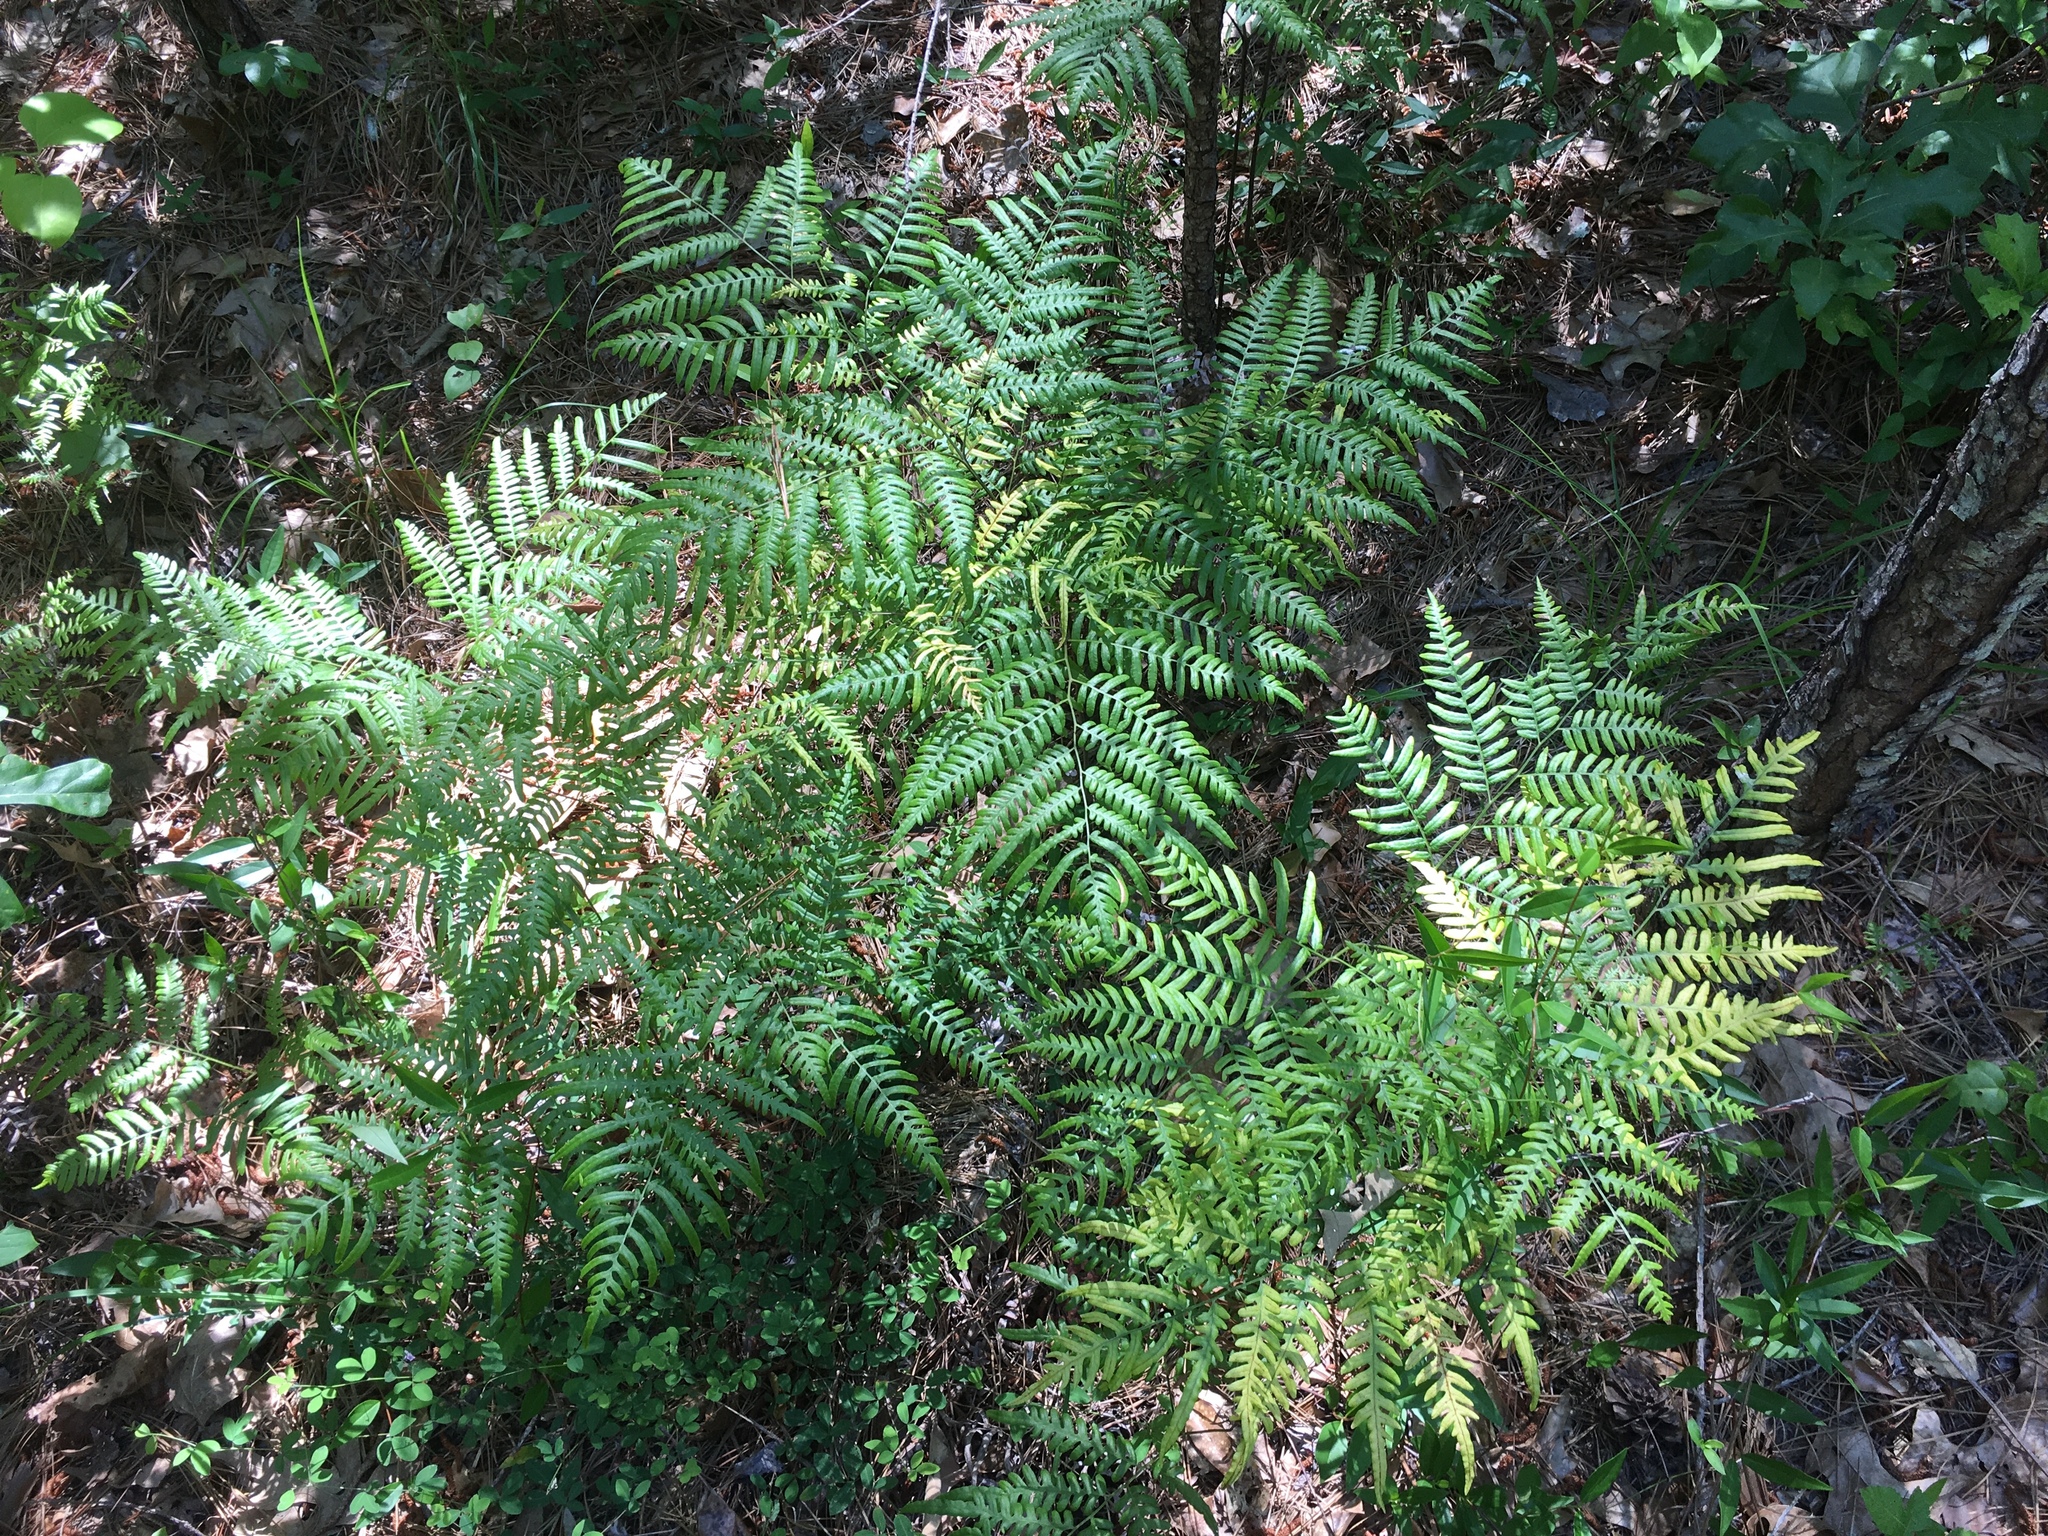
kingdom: Plantae
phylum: Tracheophyta
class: Polypodiopsida
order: Polypodiales
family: Dennstaedtiaceae
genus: Pteridium
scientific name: Pteridium aquilinum
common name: Bracken
